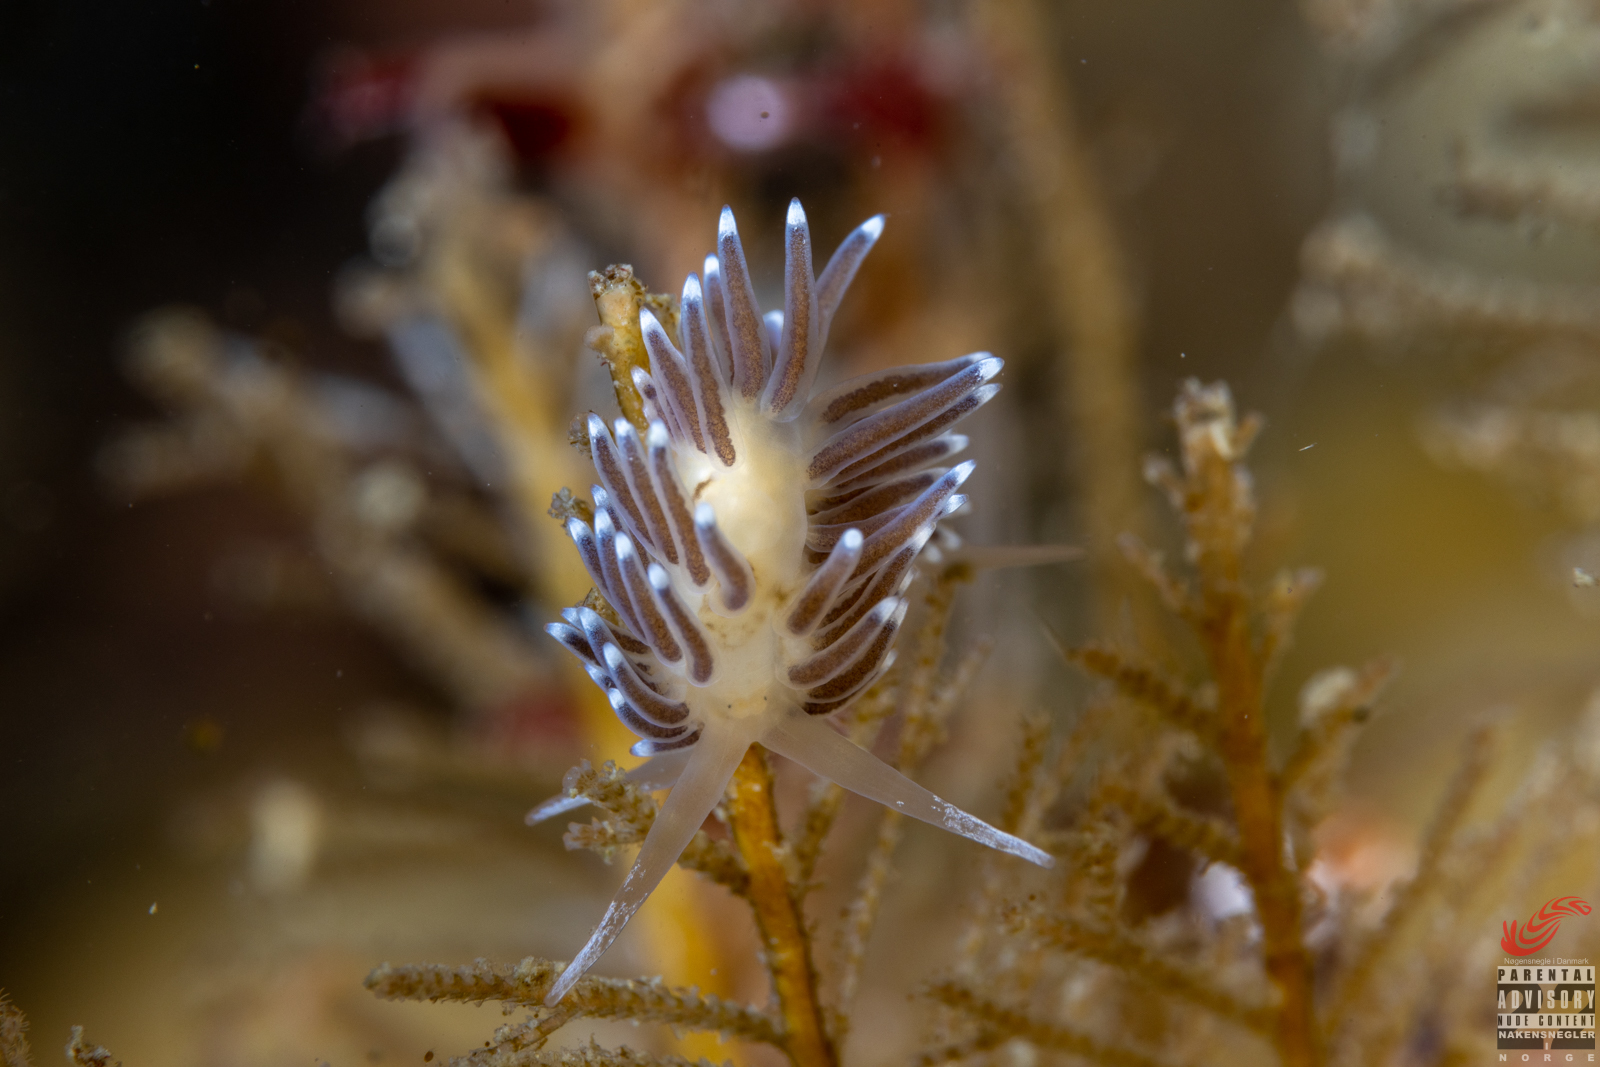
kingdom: Animalia
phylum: Mollusca
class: Gastropoda
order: Nudibranchia
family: Cuthonellidae
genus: Cuthonella
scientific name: Cuthonella concinna
